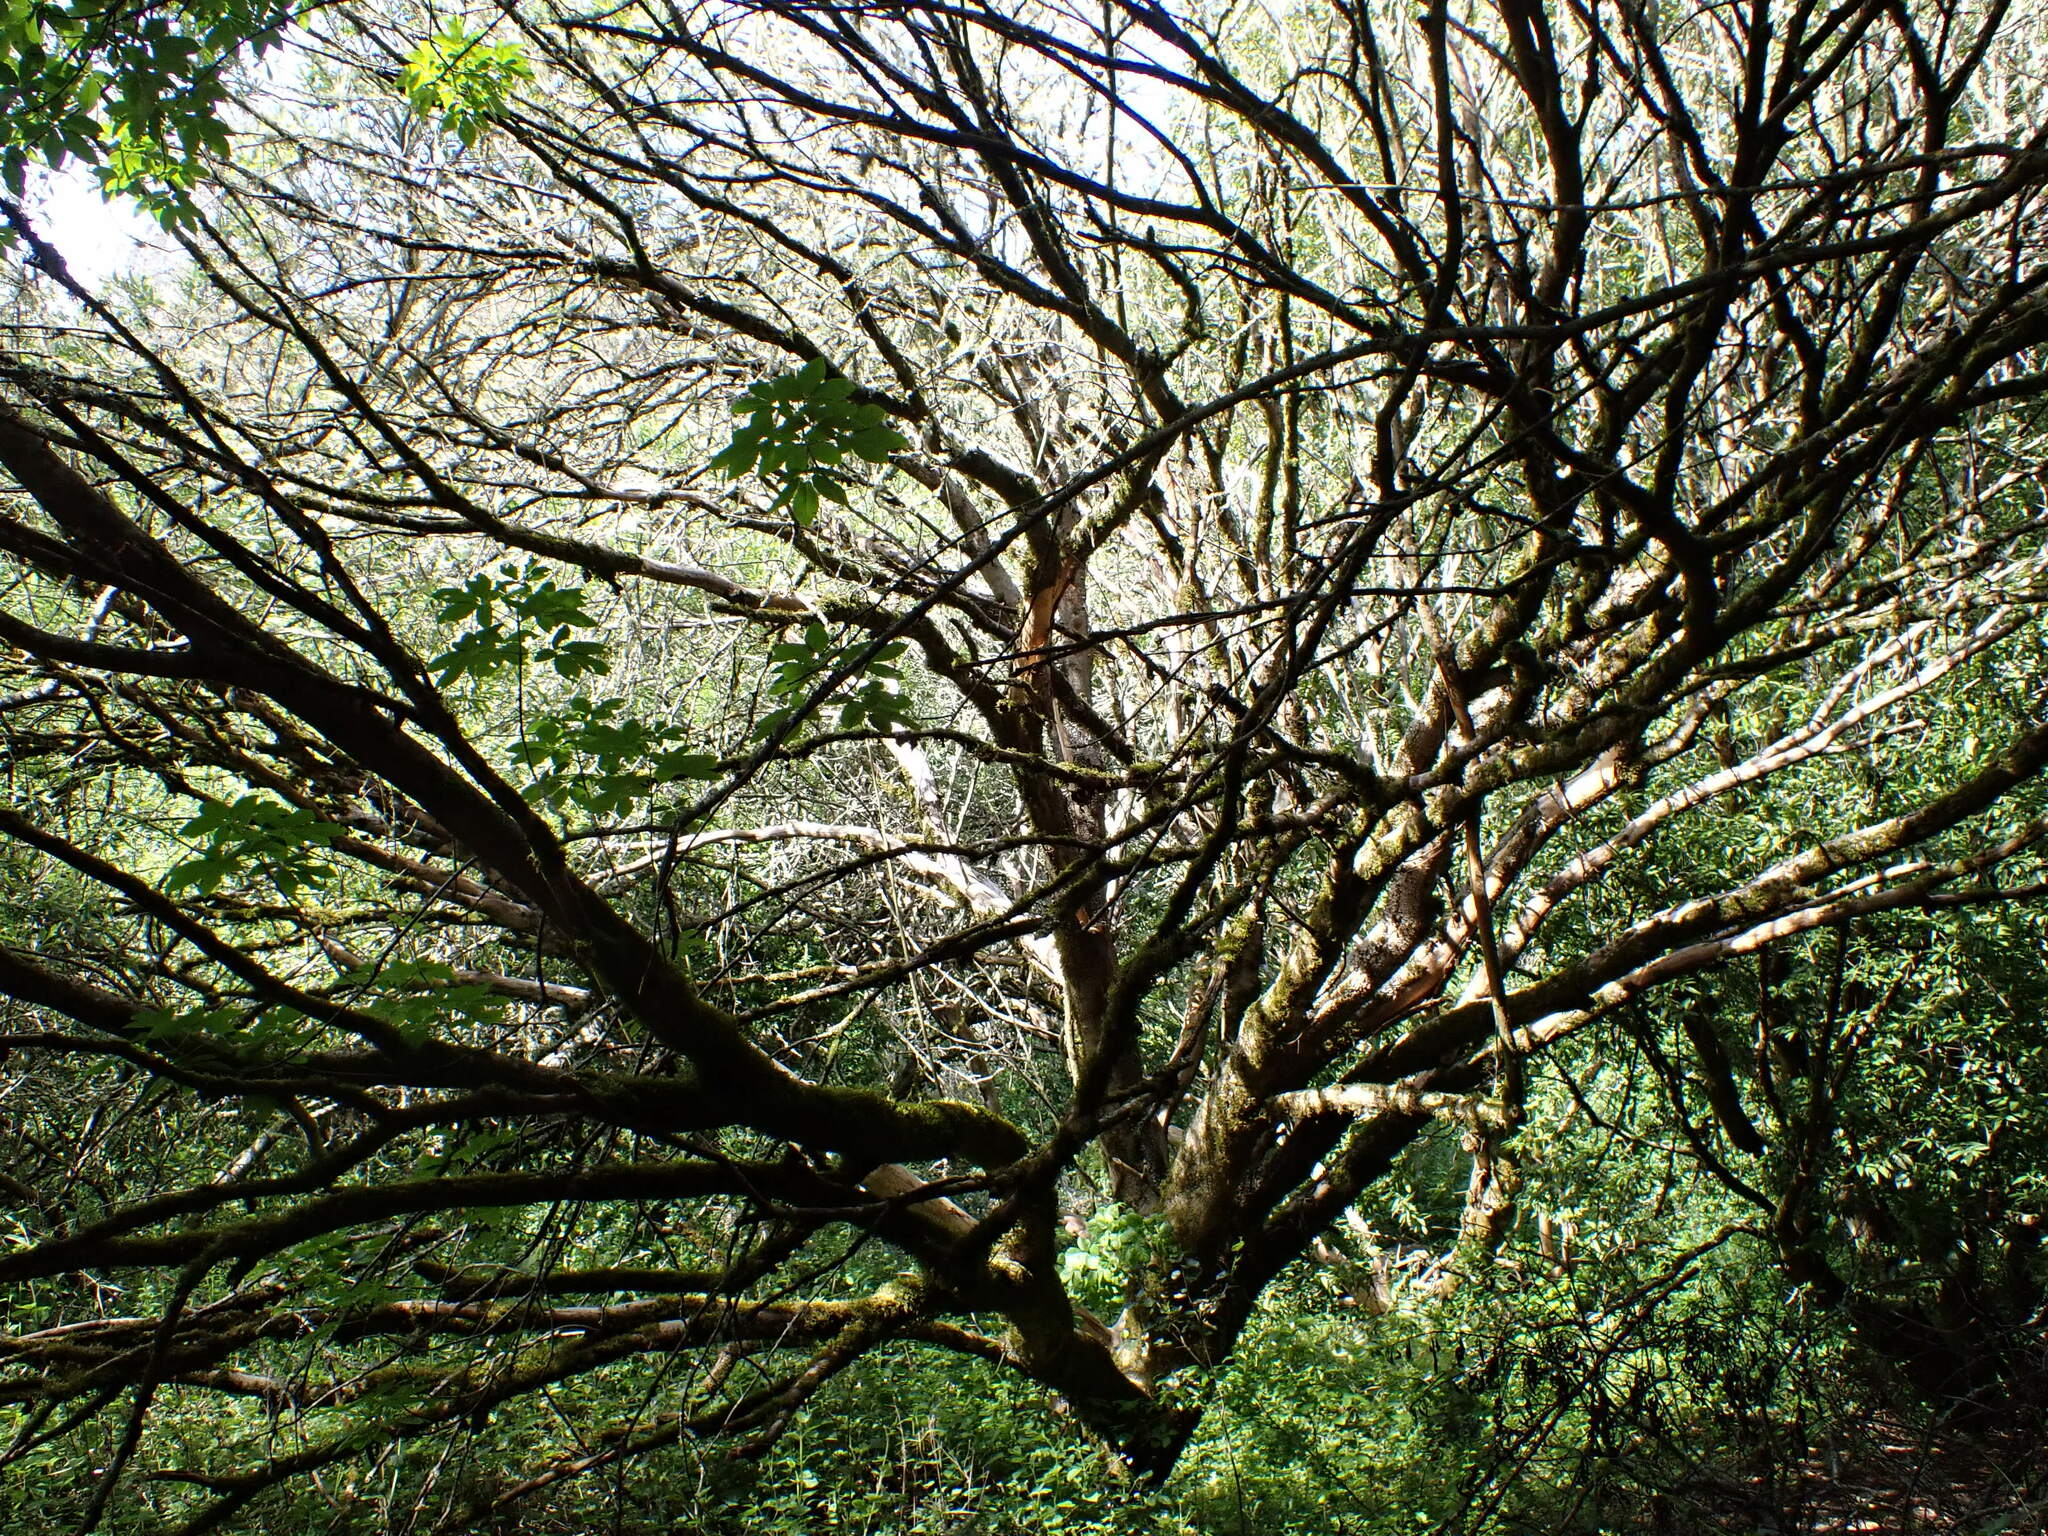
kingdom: Plantae
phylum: Tracheophyta
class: Magnoliopsida
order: Sapindales
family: Sapindaceae
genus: Aesculus
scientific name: Aesculus californica
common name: California buckeye
